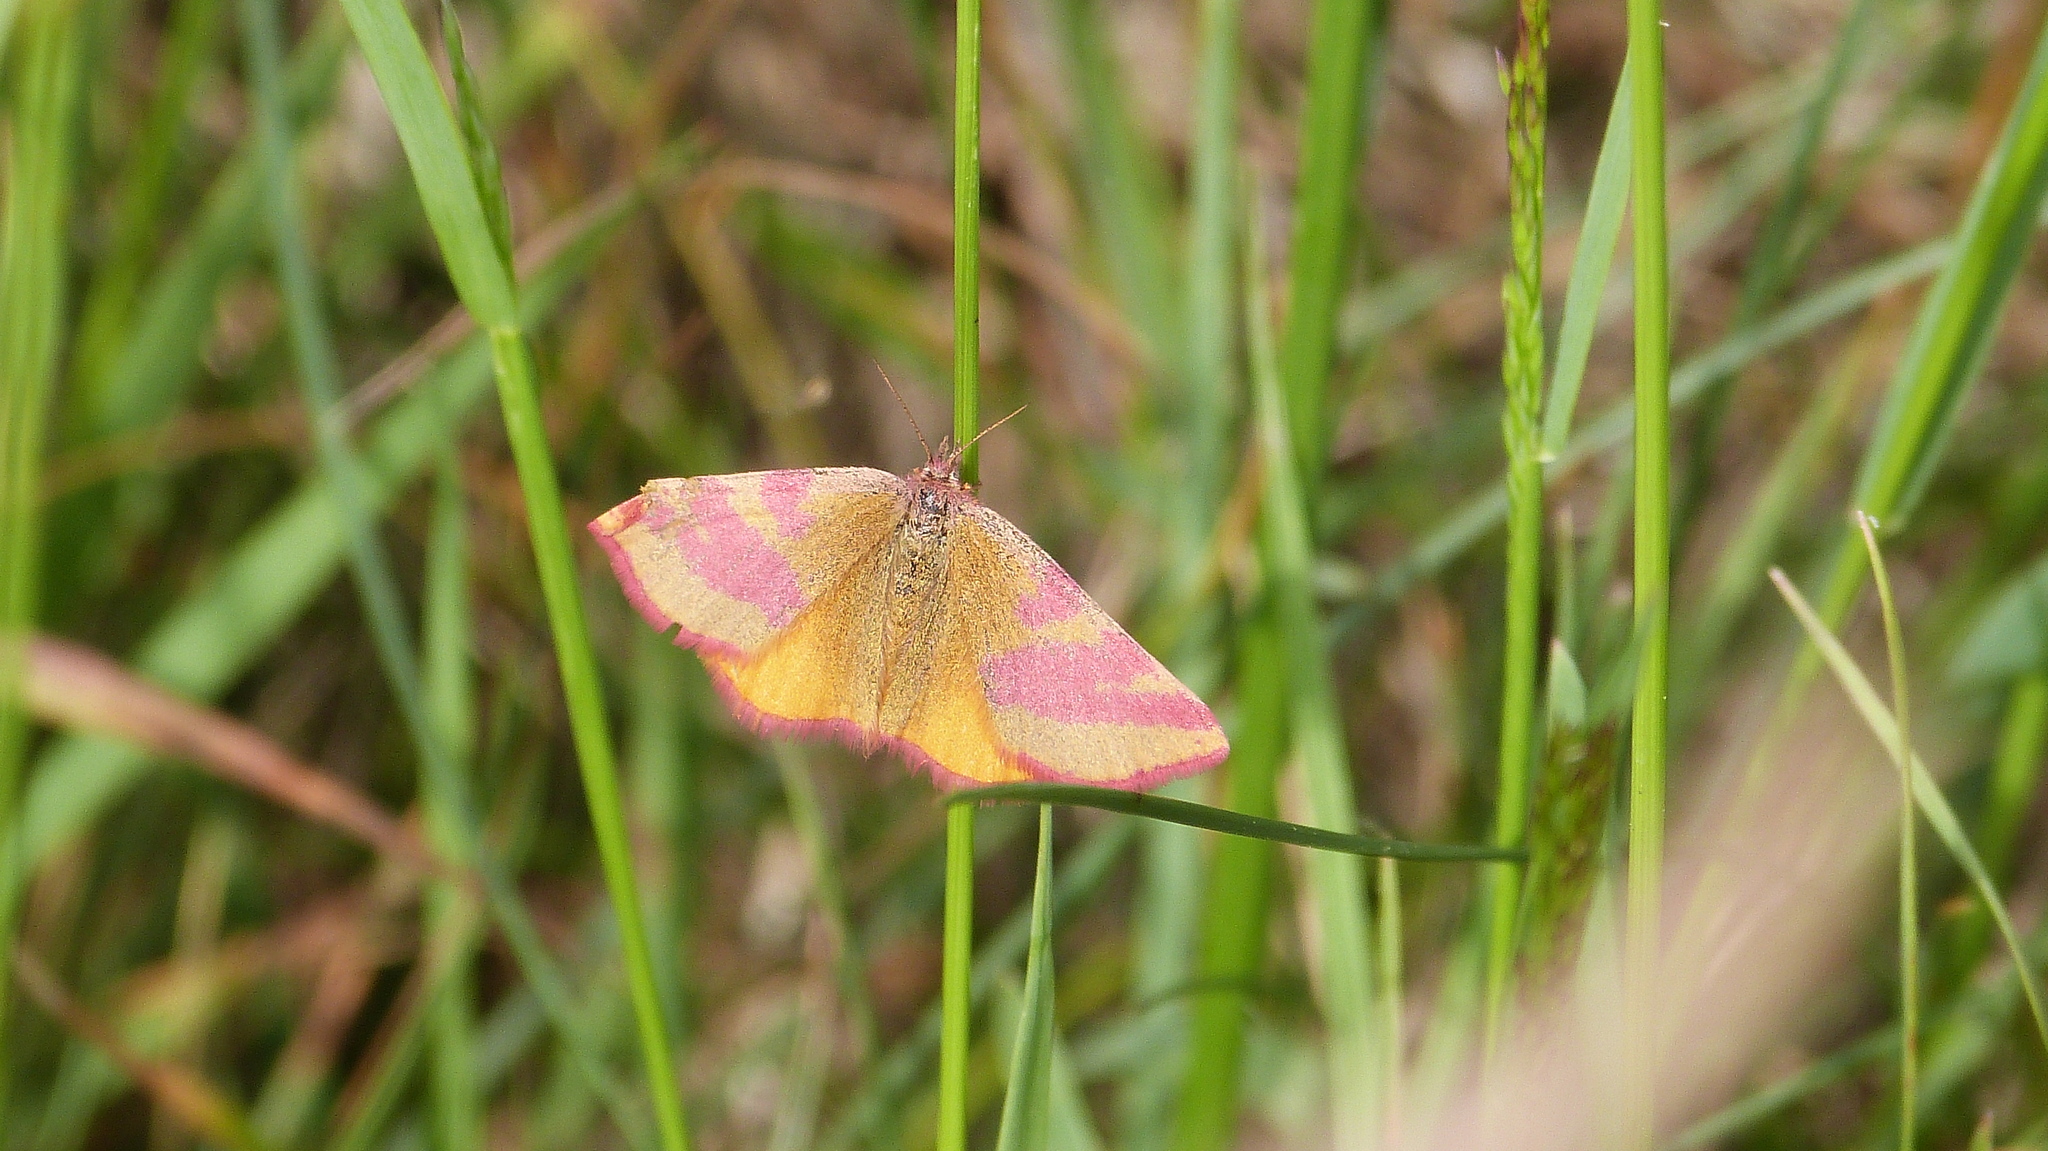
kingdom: Animalia
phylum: Arthropoda
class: Insecta
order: Lepidoptera
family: Geometridae
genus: Lythria
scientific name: Lythria cruentaria
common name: Purple-barred yellow
